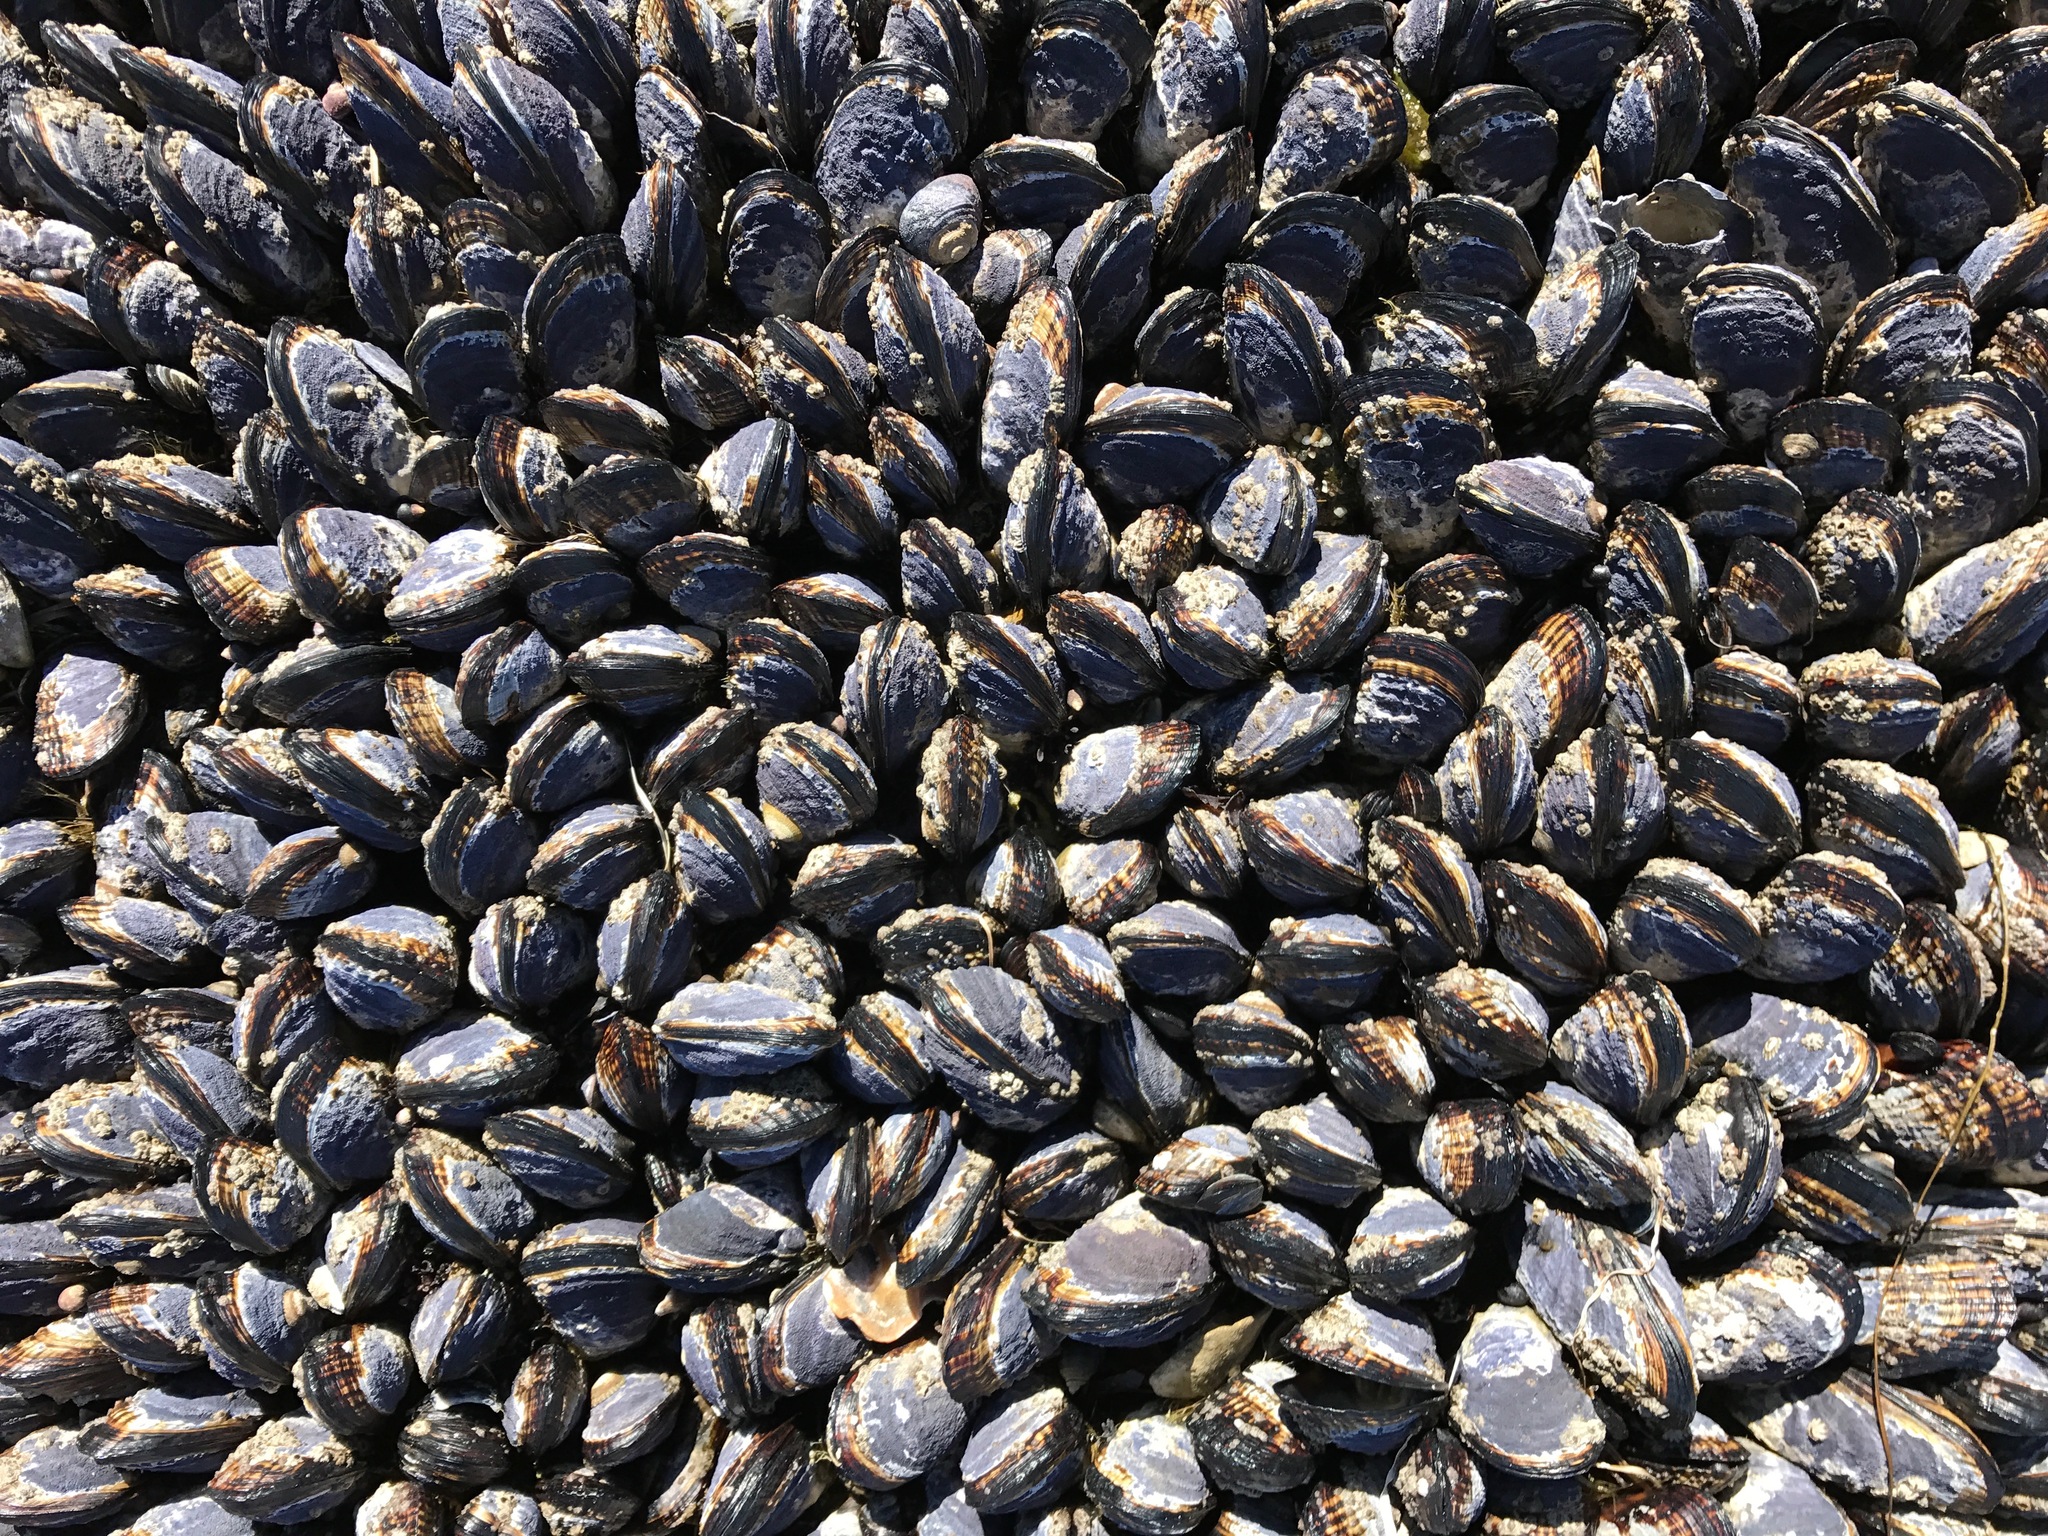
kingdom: Animalia
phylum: Mollusca
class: Bivalvia
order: Mytilida
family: Mytilidae
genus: Mytilus
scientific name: Mytilus californianus
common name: California mussel
